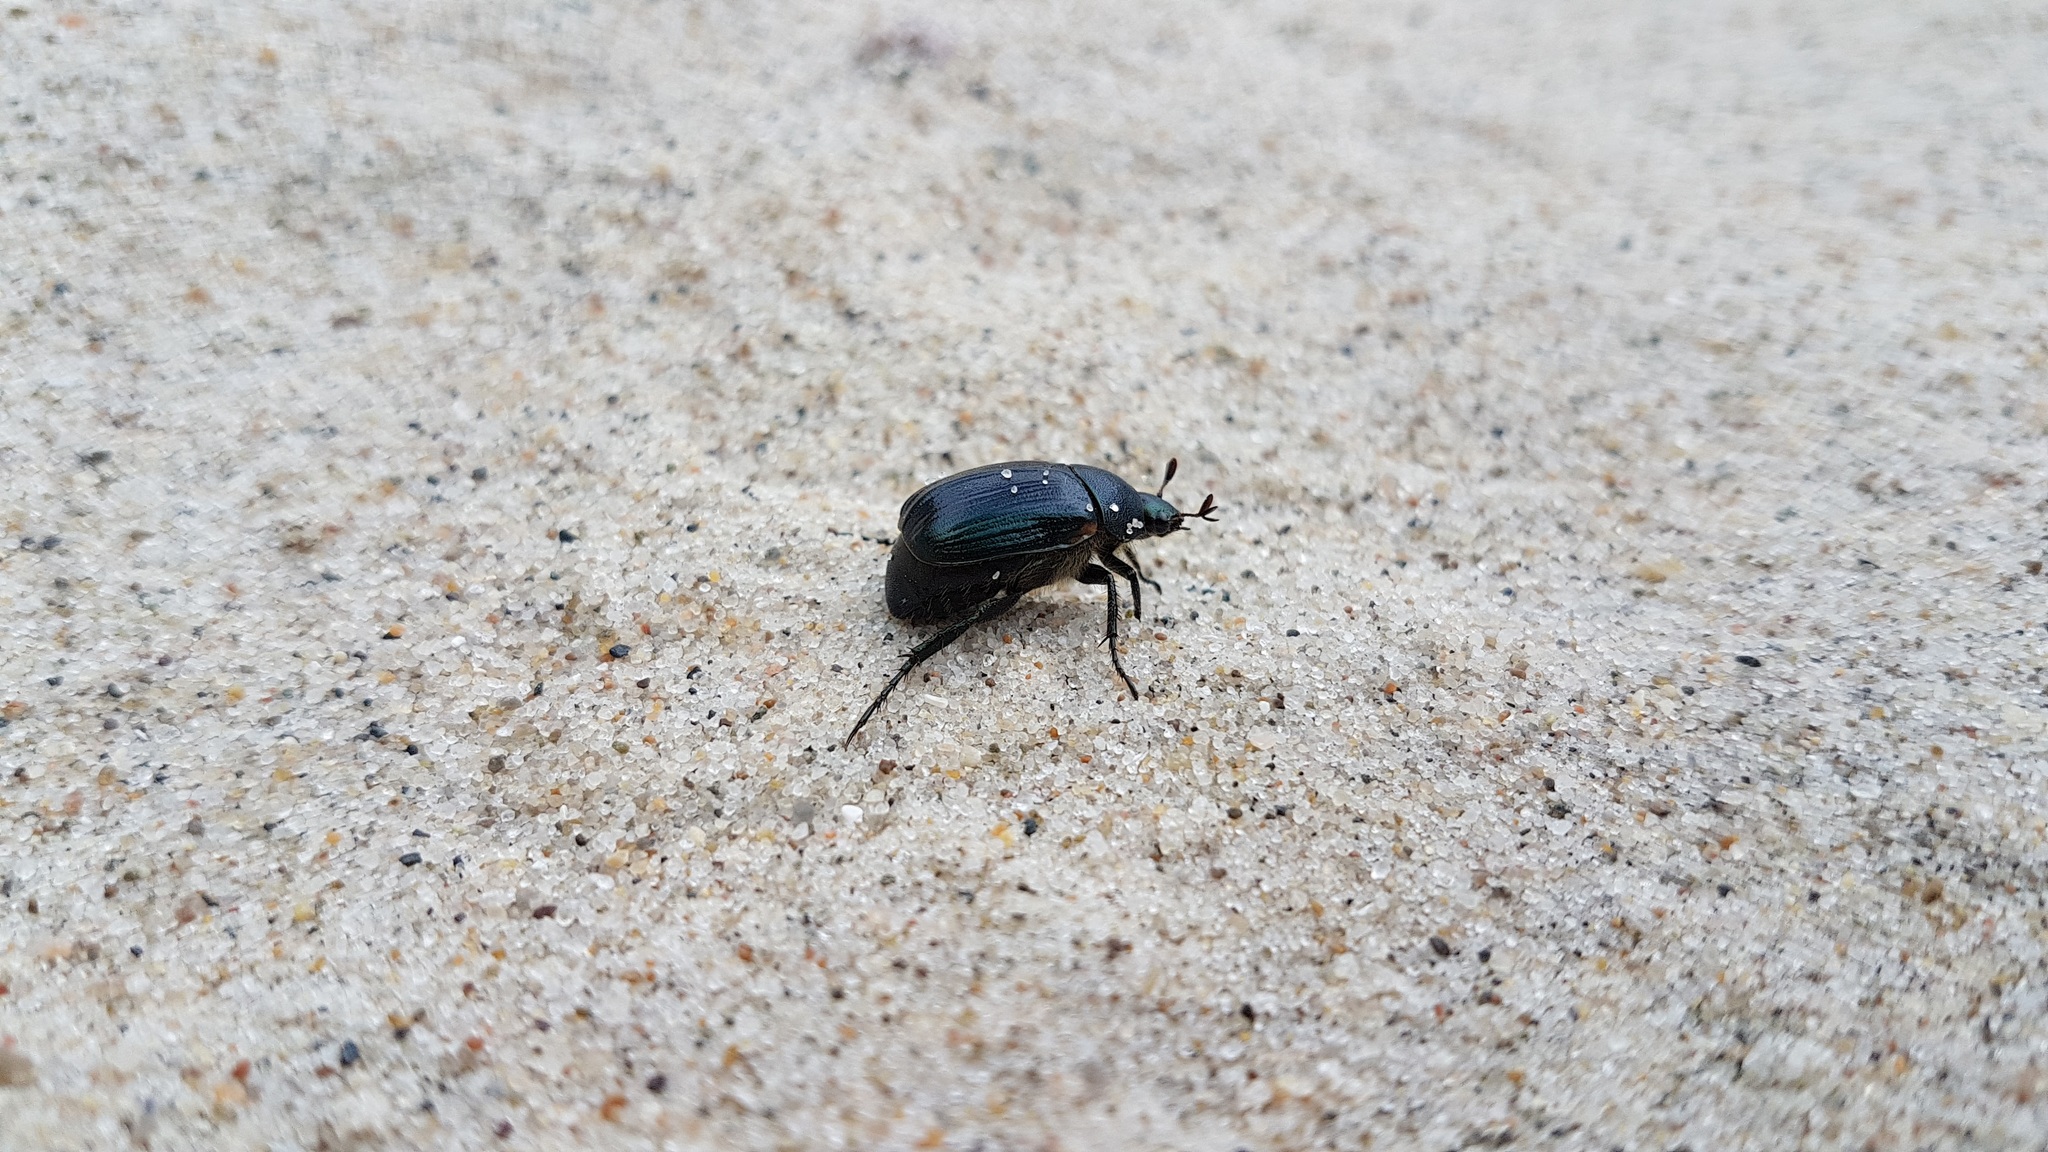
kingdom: Animalia
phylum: Arthropoda
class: Insecta
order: Coleoptera
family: Scarabaeidae
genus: Anomala
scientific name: Anomala dubia
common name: Dune chafer
